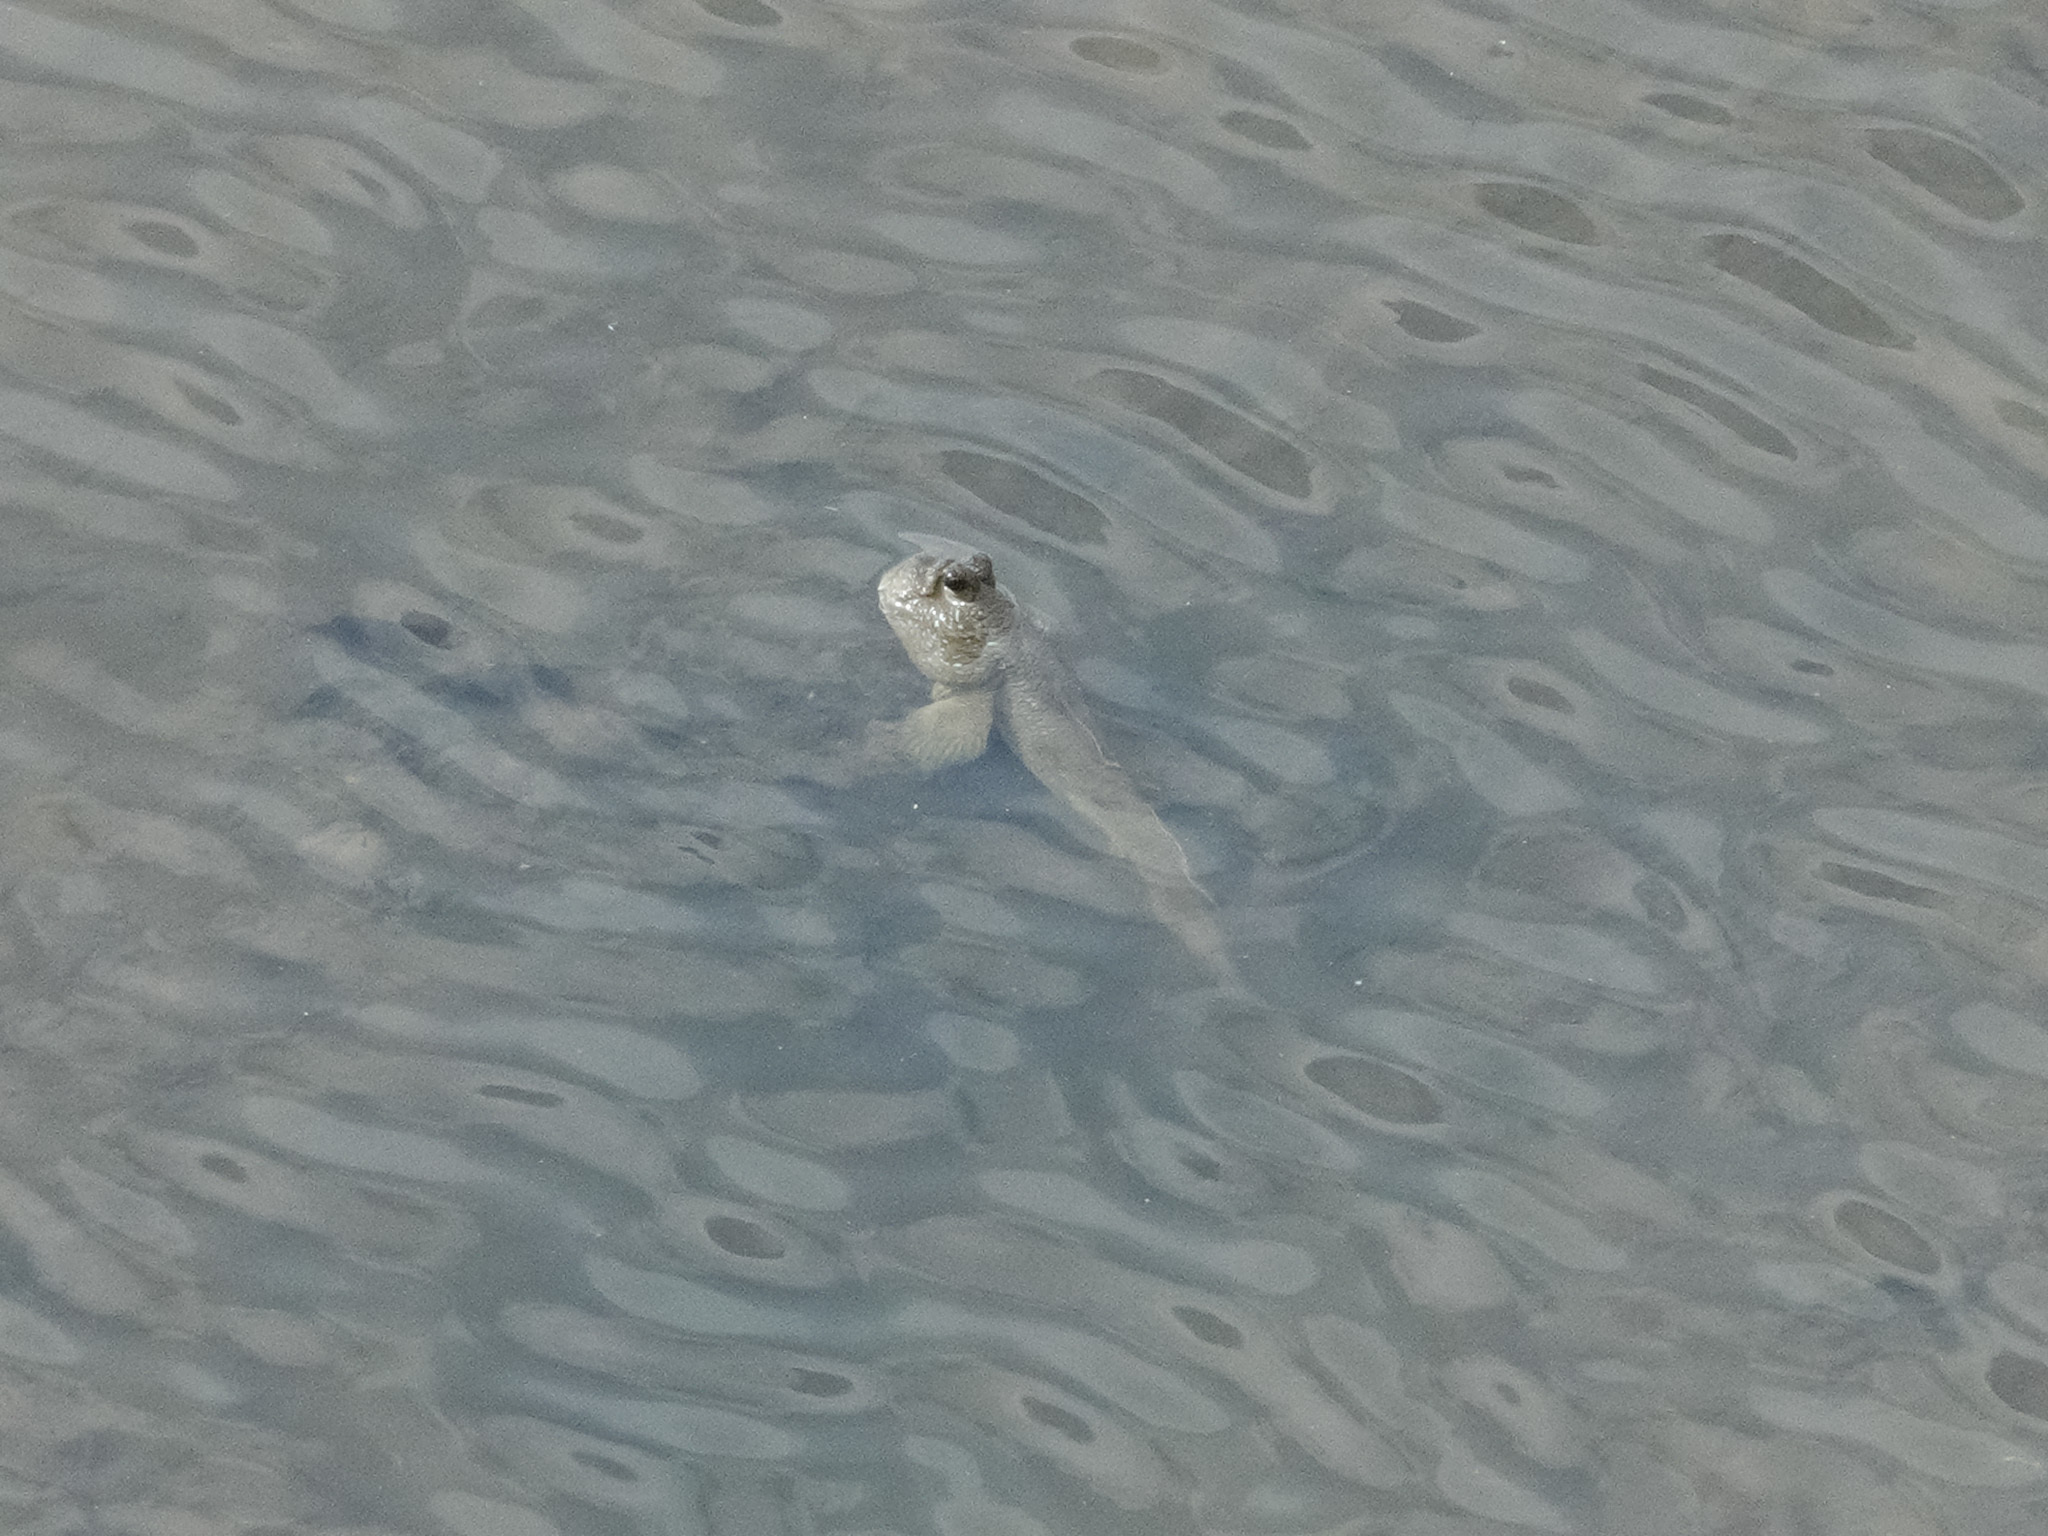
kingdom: Animalia
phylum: Chordata
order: Perciformes
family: Gobiidae
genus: Periophthalmodon
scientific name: Periophthalmodon schlosseri
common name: Giant mudskipper
